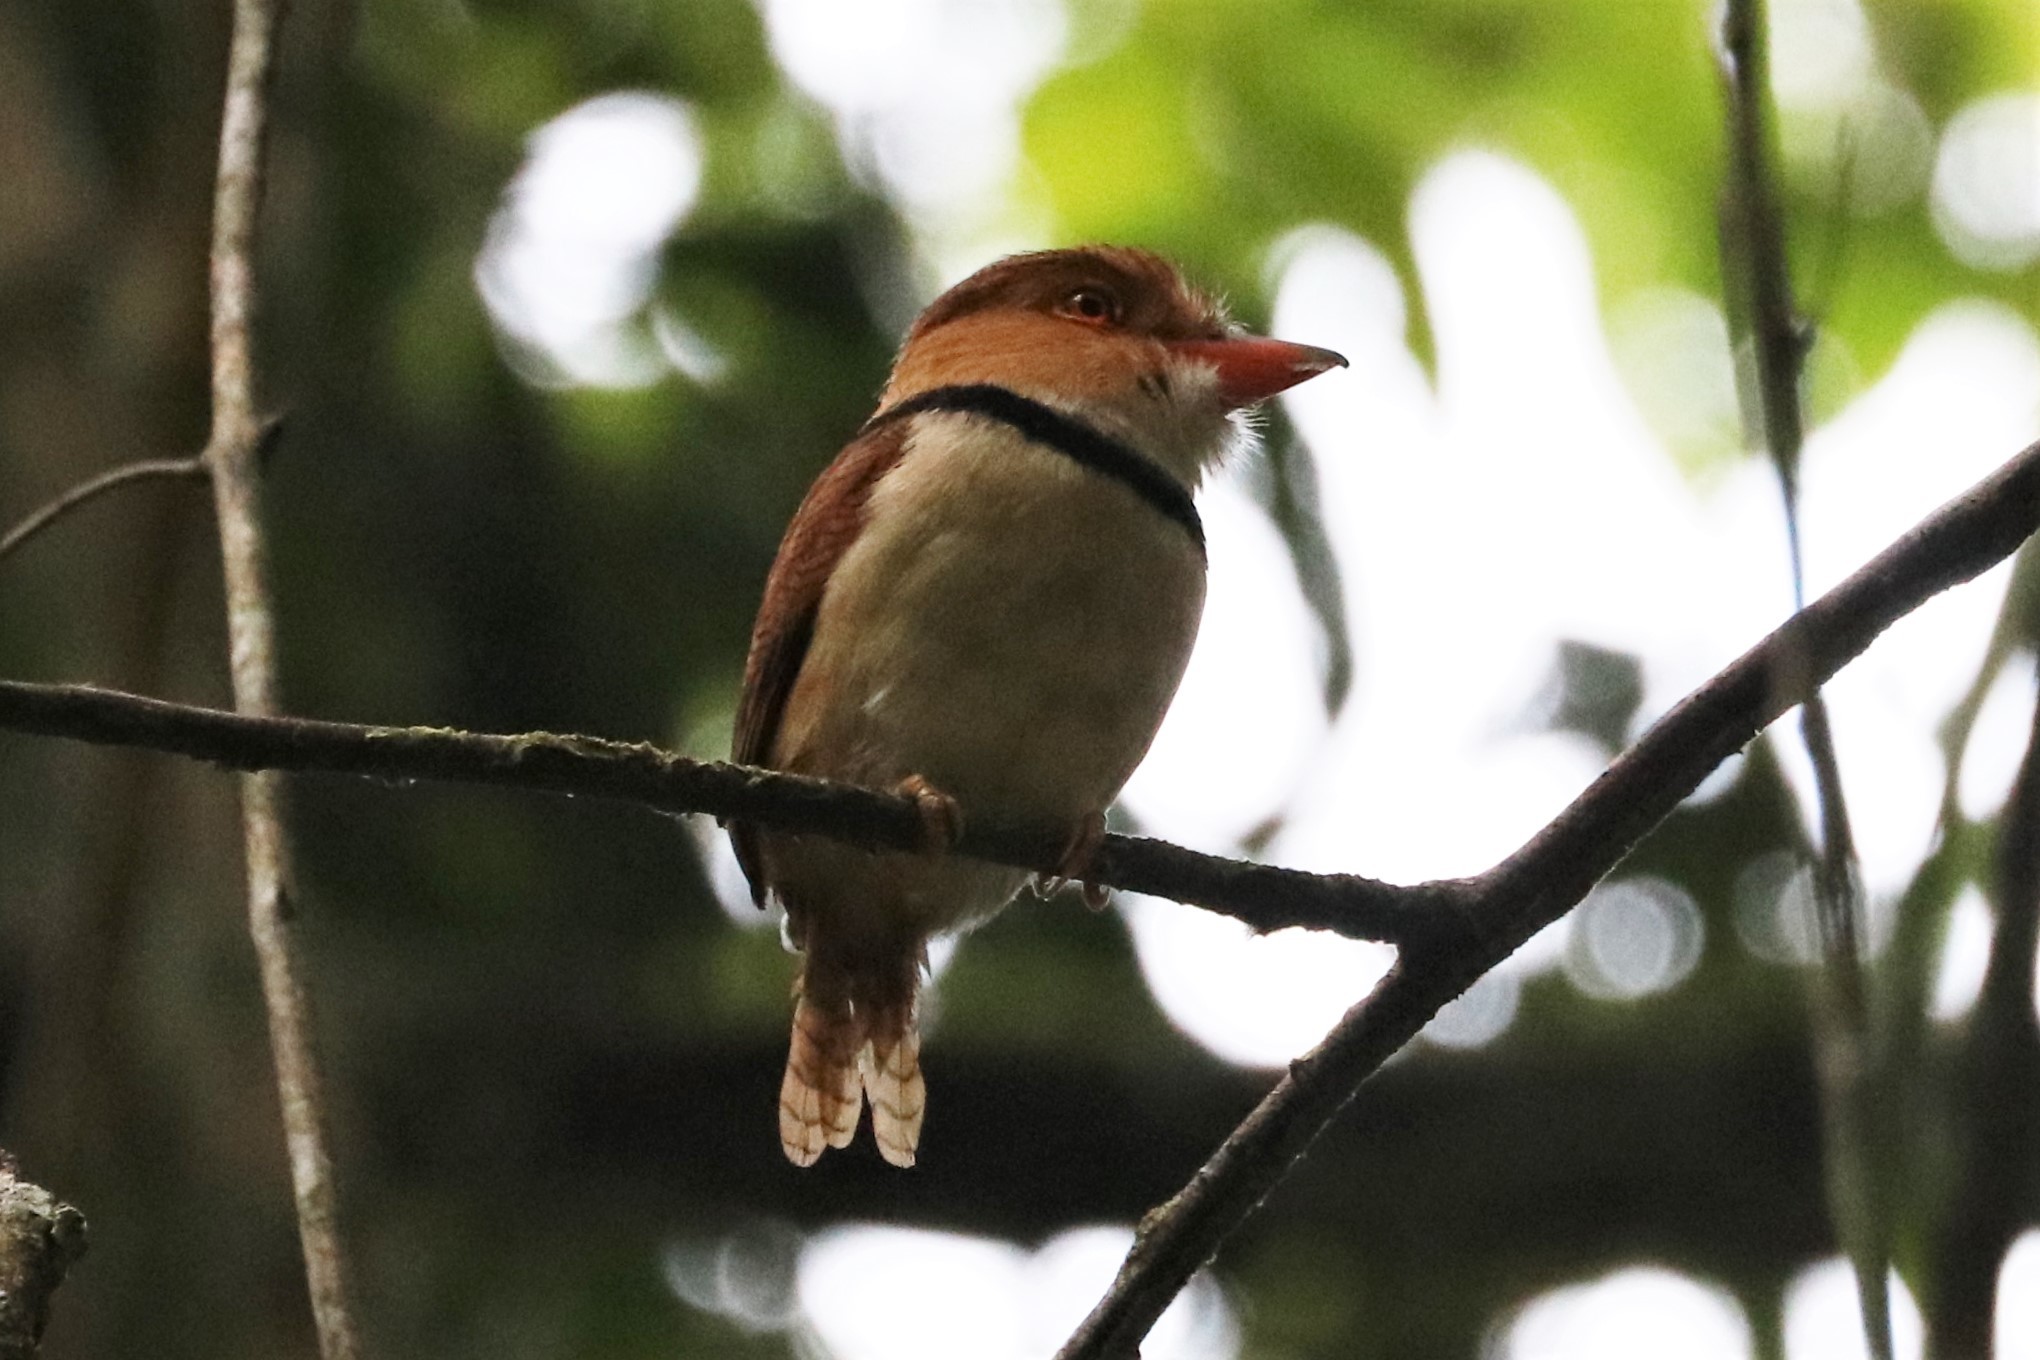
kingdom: Animalia
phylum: Chordata
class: Aves
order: Piciformes
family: Bucconidae
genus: Bucco
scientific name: Bucco capensis
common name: Collared puffbird
